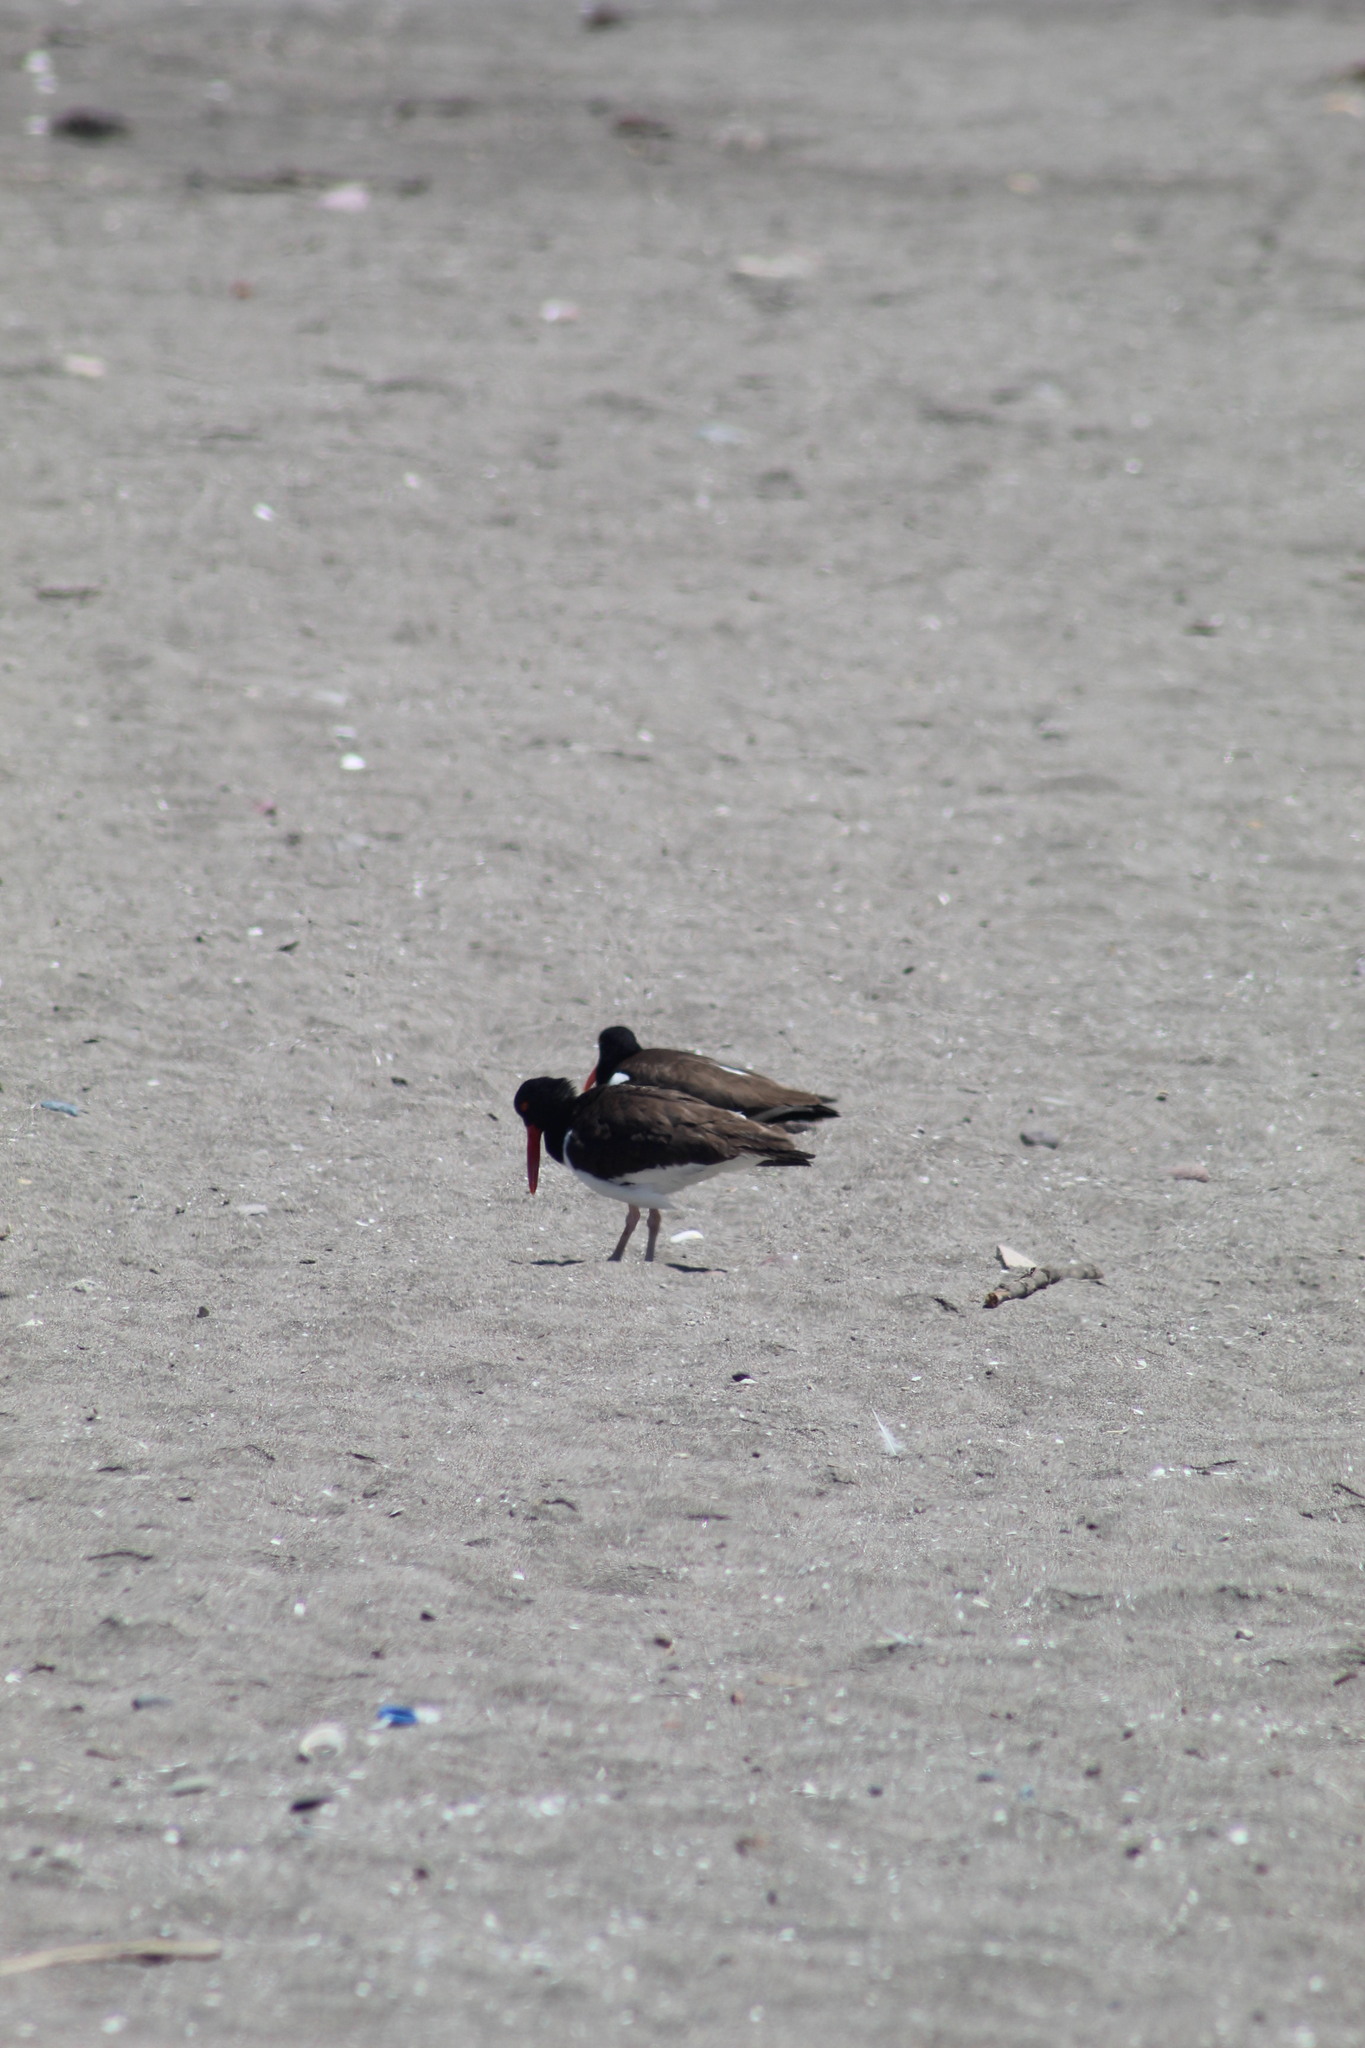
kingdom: Animalia
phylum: Chordata
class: Aves
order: Charadriiformes
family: Haematopodidae
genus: Haematopus
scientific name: Haematopus palliatus
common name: American oystercatcher
